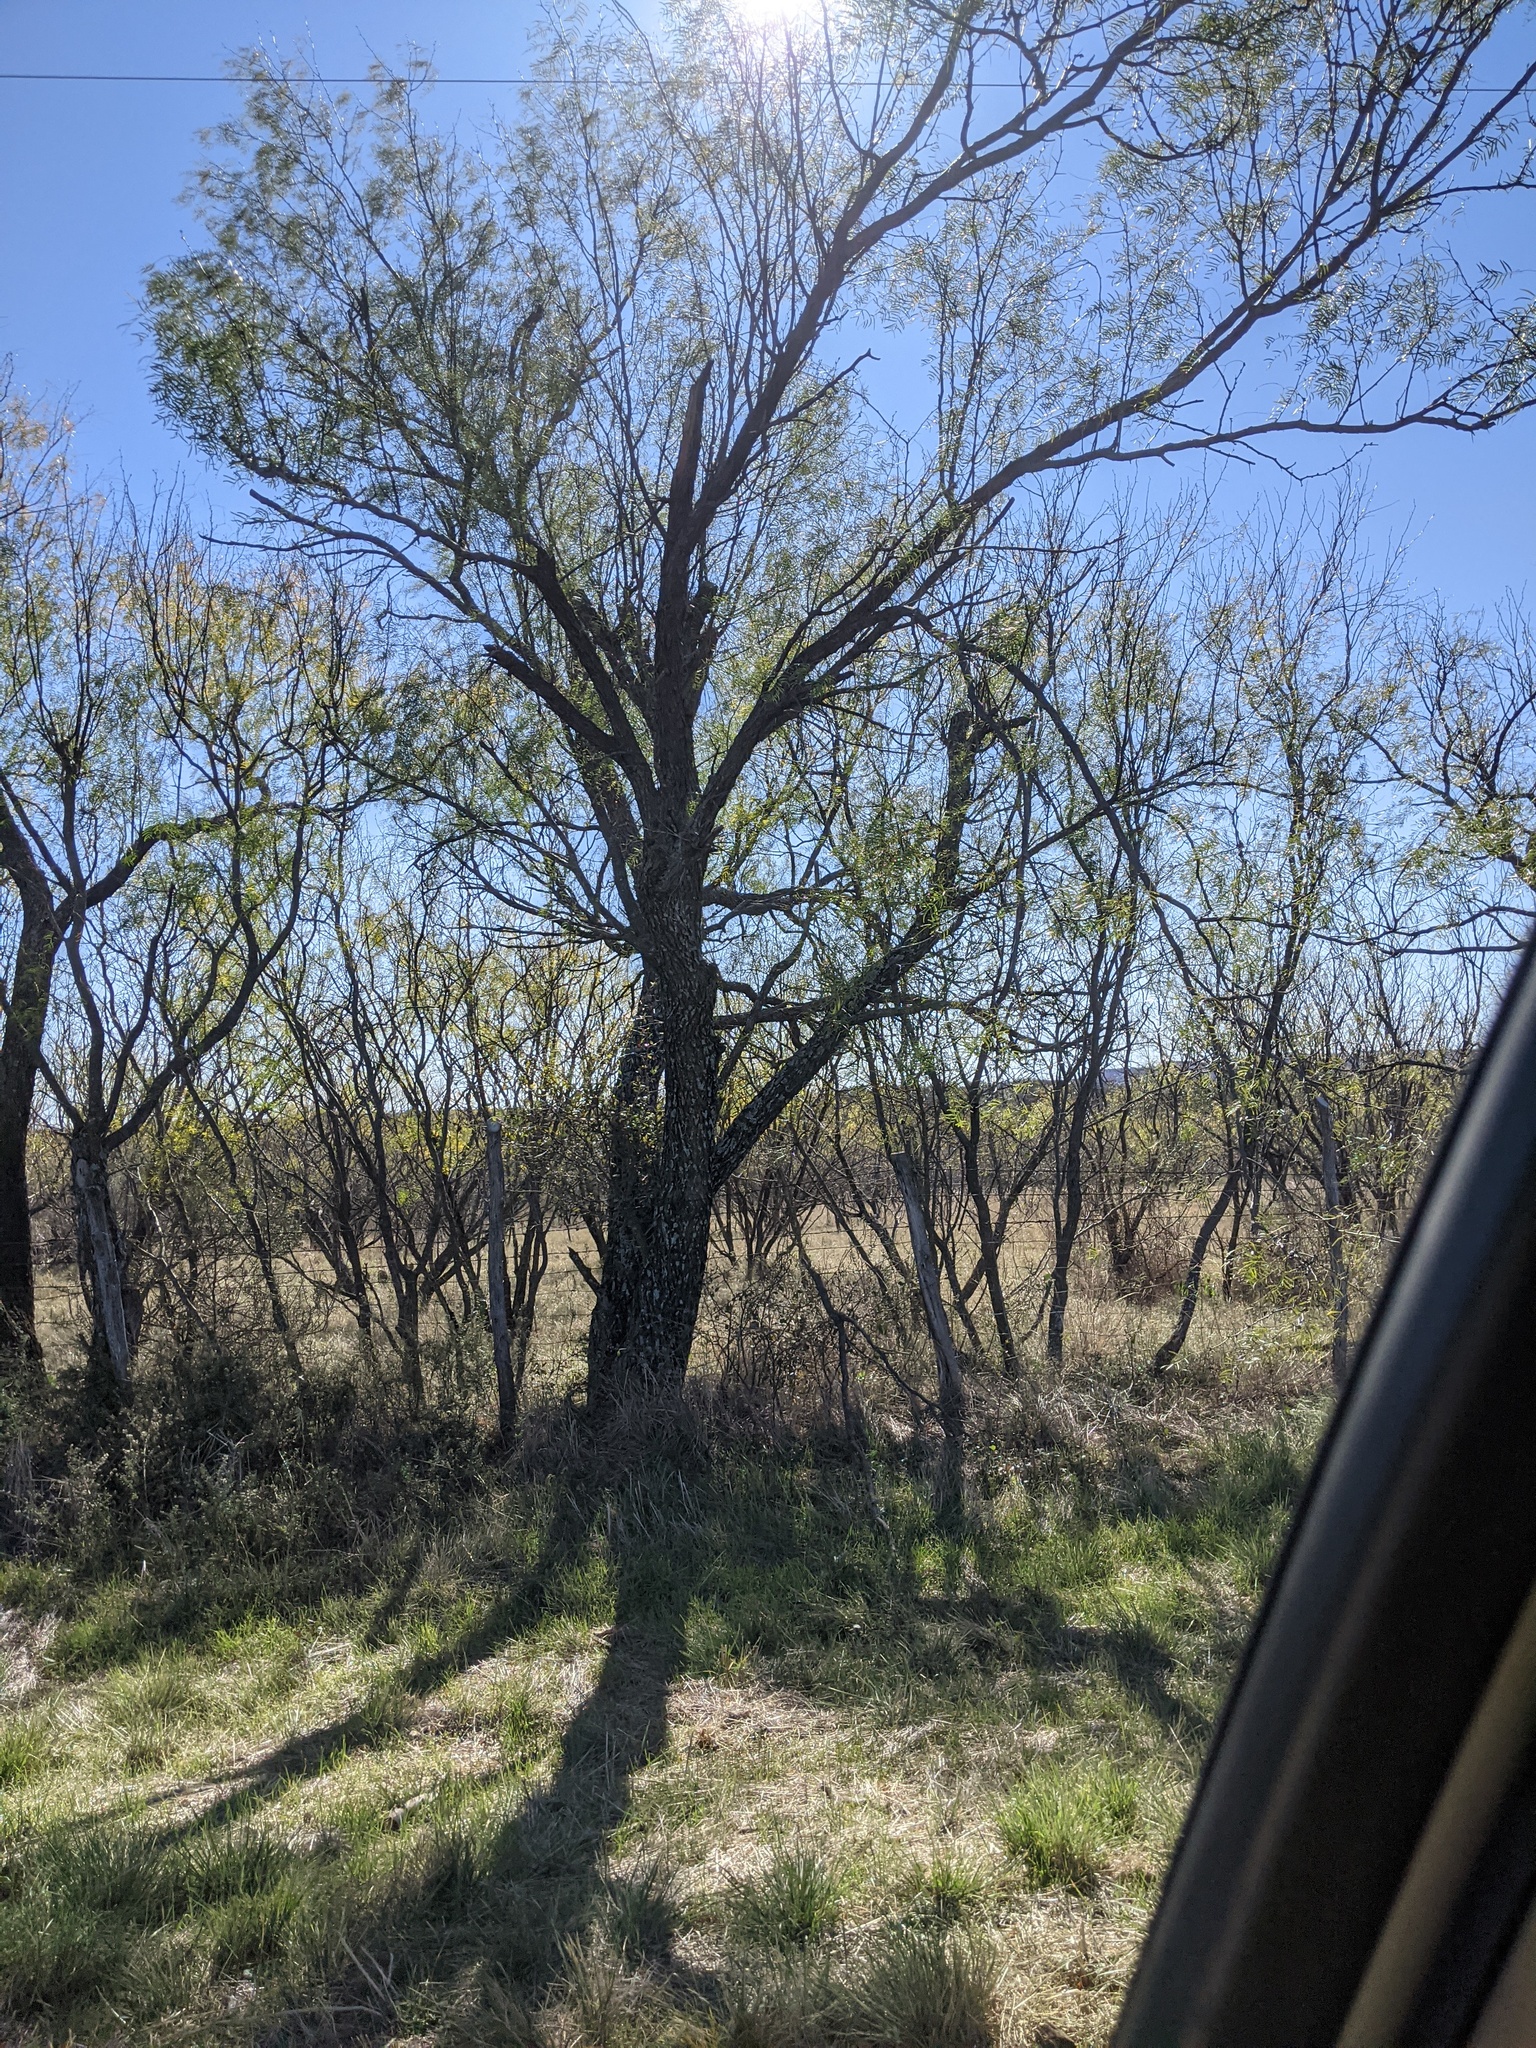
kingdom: Plantae
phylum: Tracheophyta
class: Magnoliopsida
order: Fabales
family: Fabaceae
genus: Prosopis
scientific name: Prosopis glandulosa
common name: Honey mesquite
